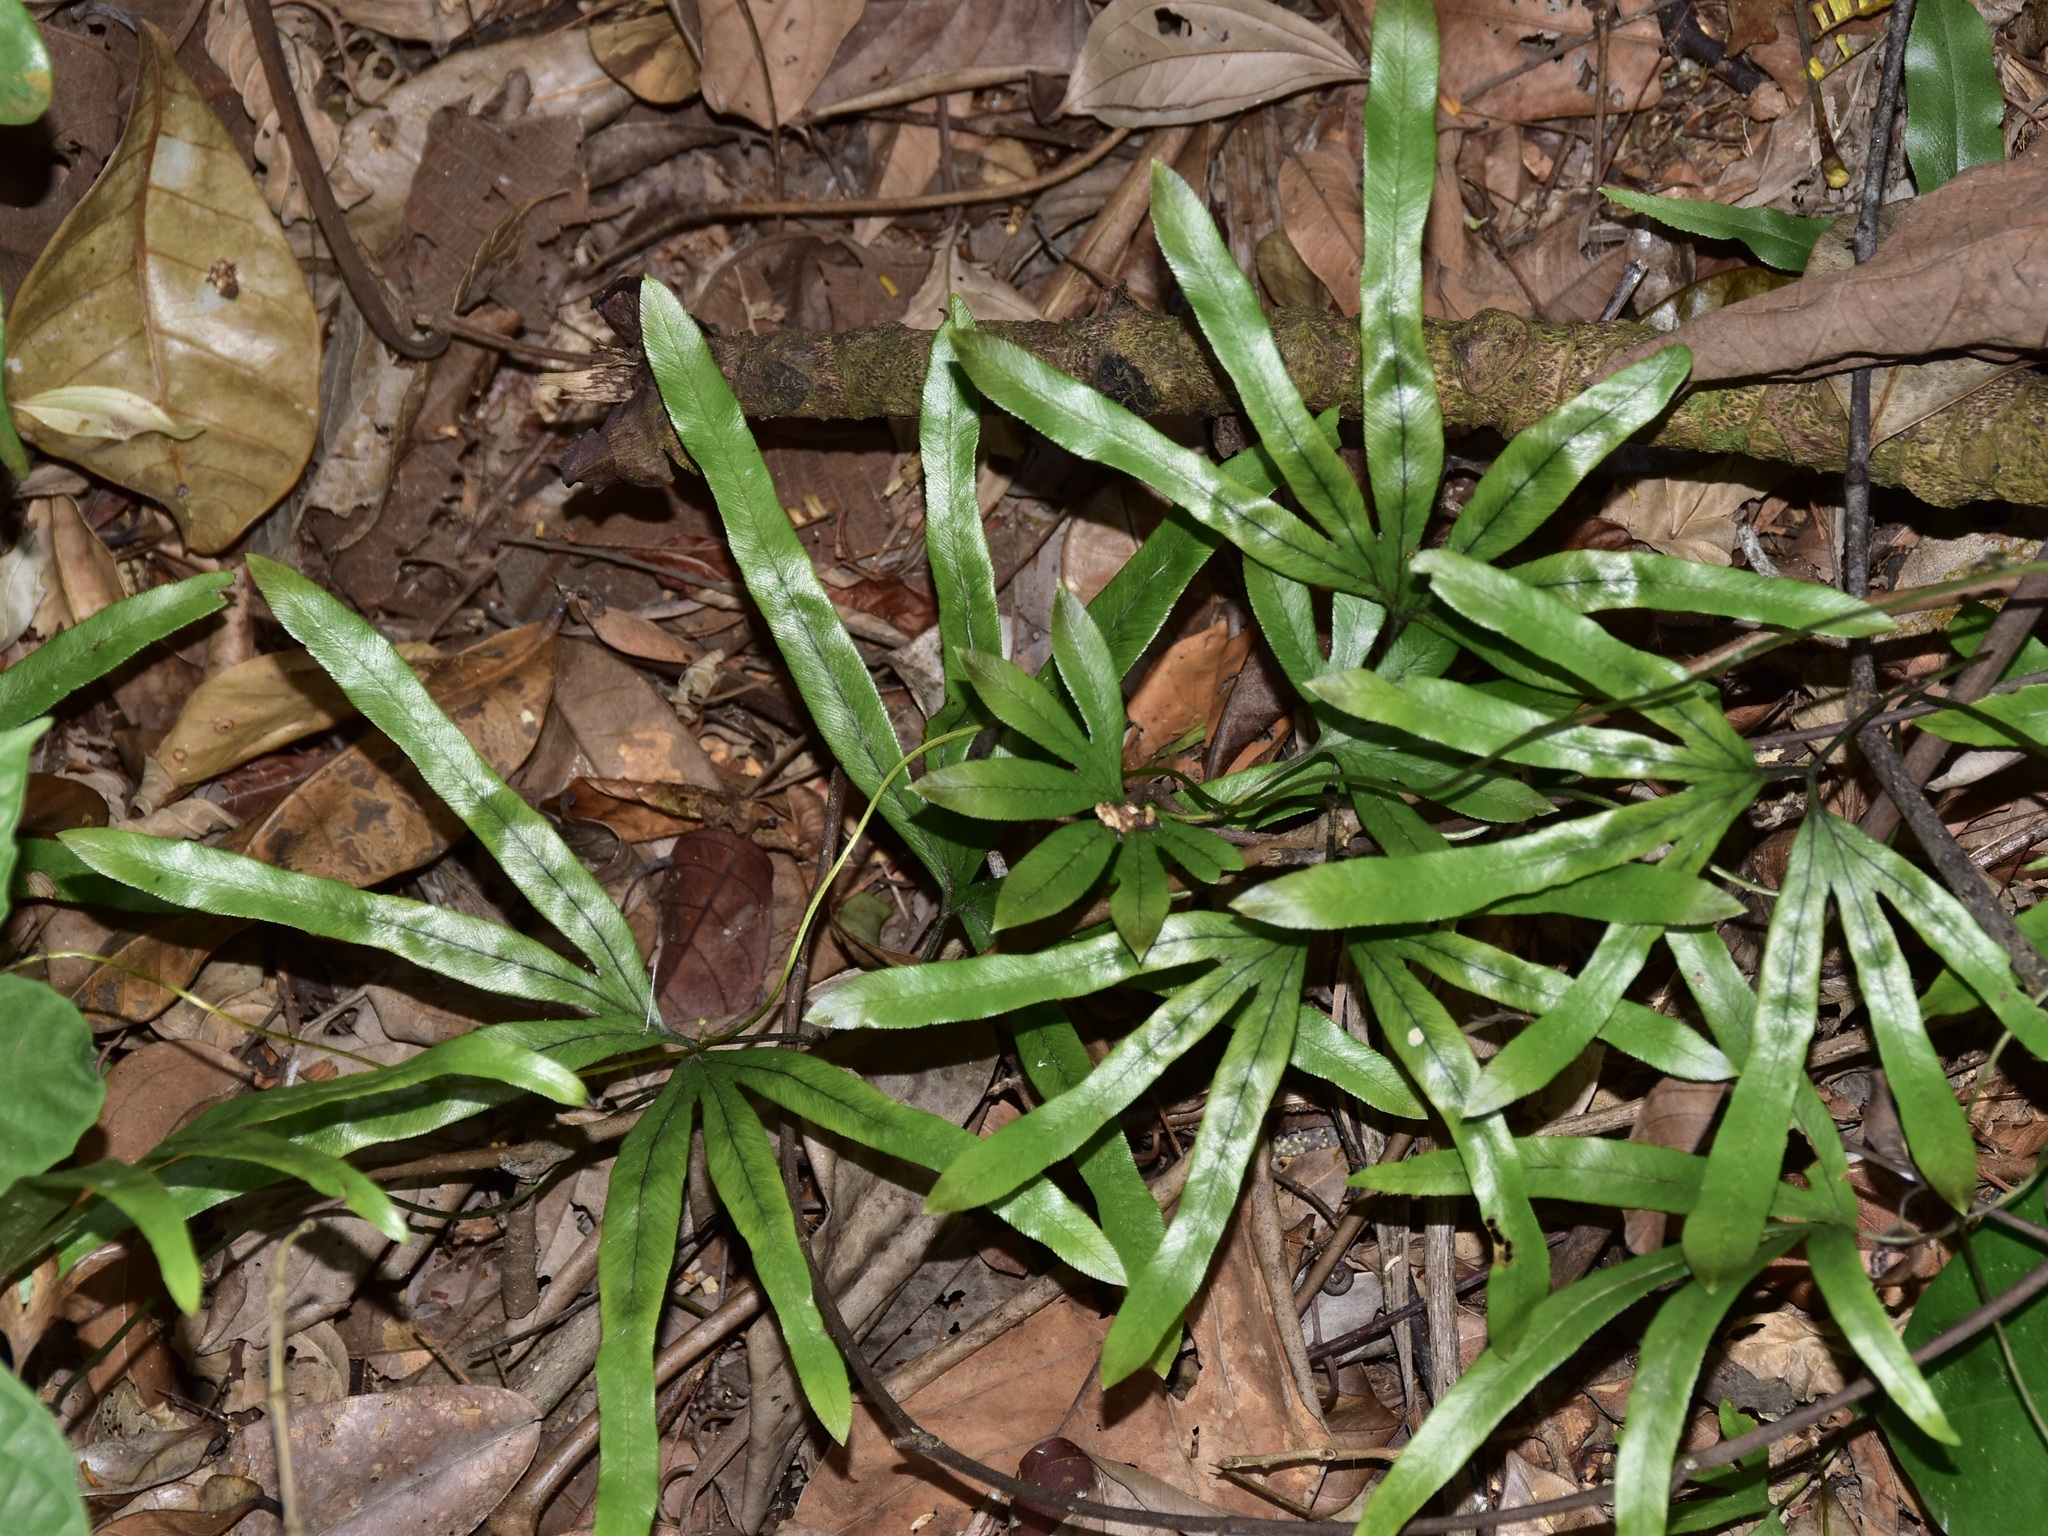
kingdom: Plantae
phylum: Tracheophyta
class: Polypodiopsida
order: Schizaeales
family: Lygodiaceae
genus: Lygodium
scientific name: Lygodium longifolium
